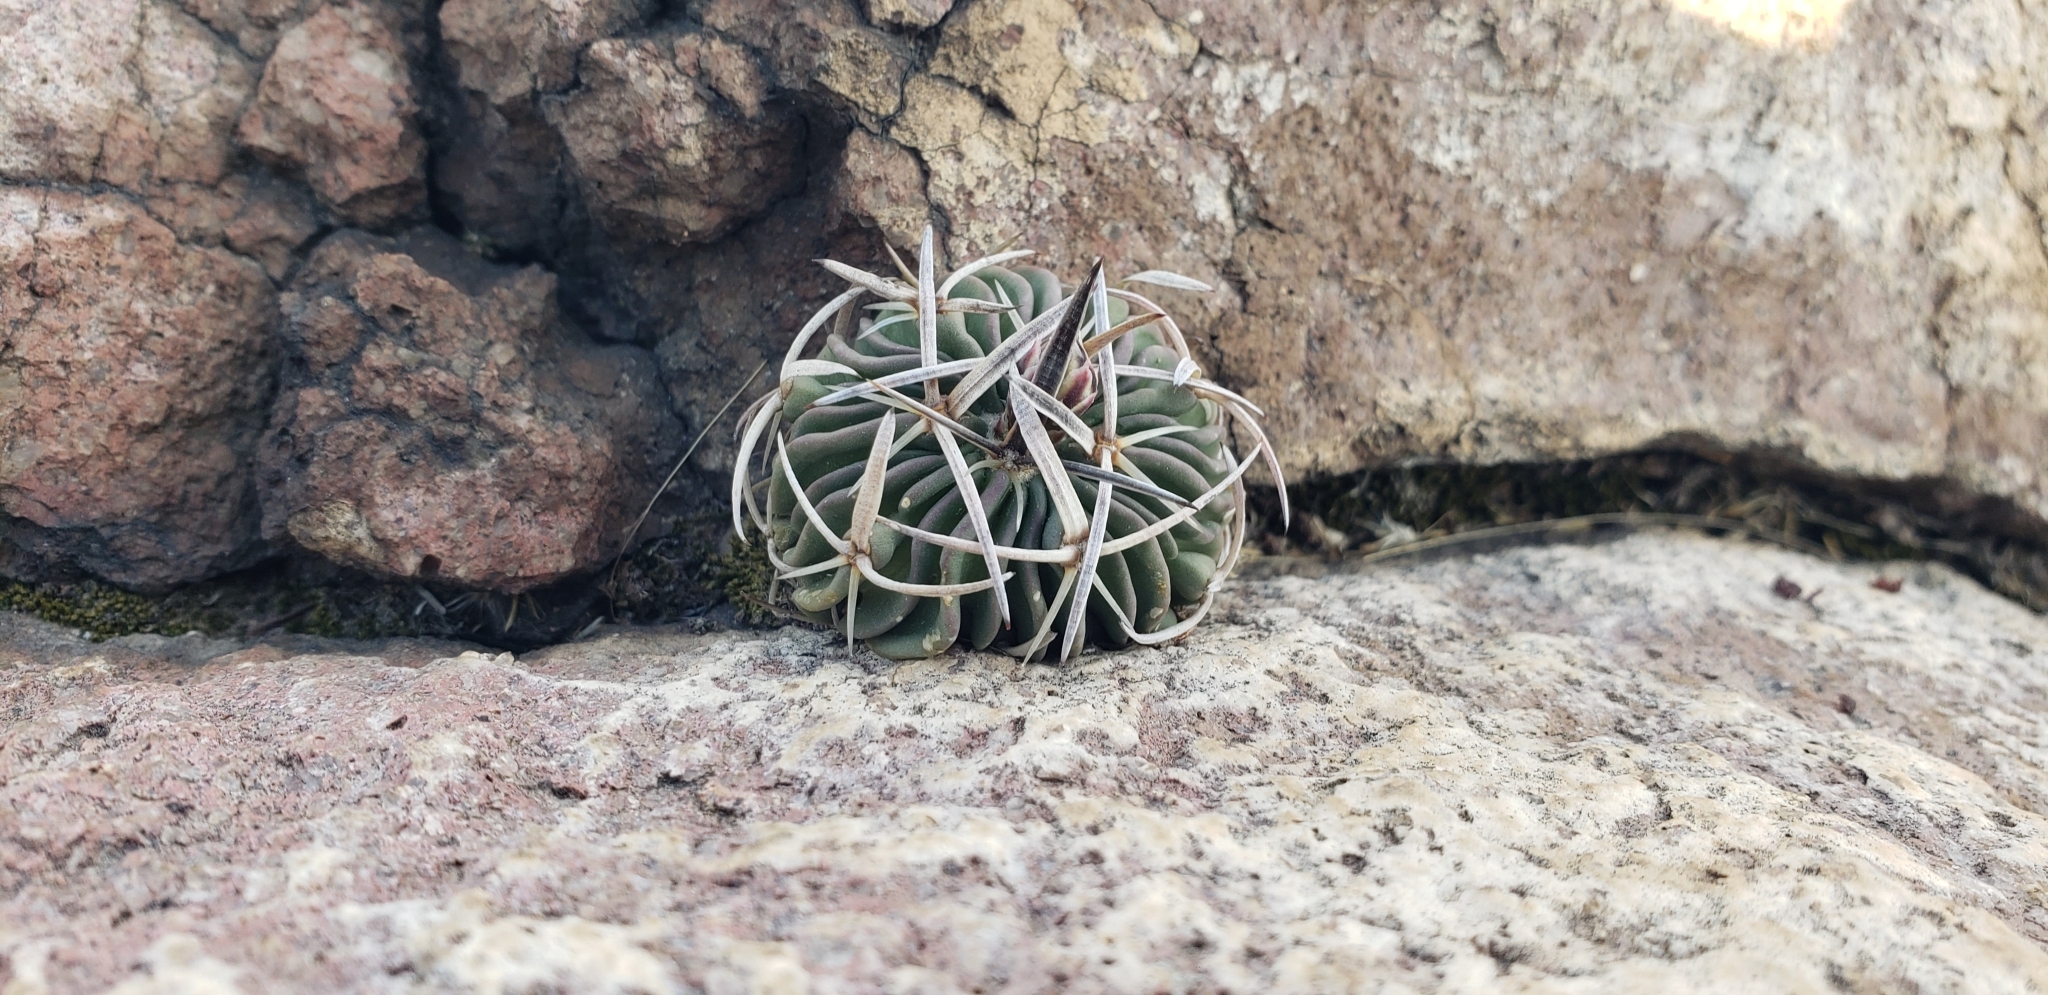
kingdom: Plantae
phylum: Tracheophyta
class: Magnoliopsida
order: Caryophyllales
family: Cactaceae
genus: Stenocactus
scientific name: Stenocactus phyllacanthus
